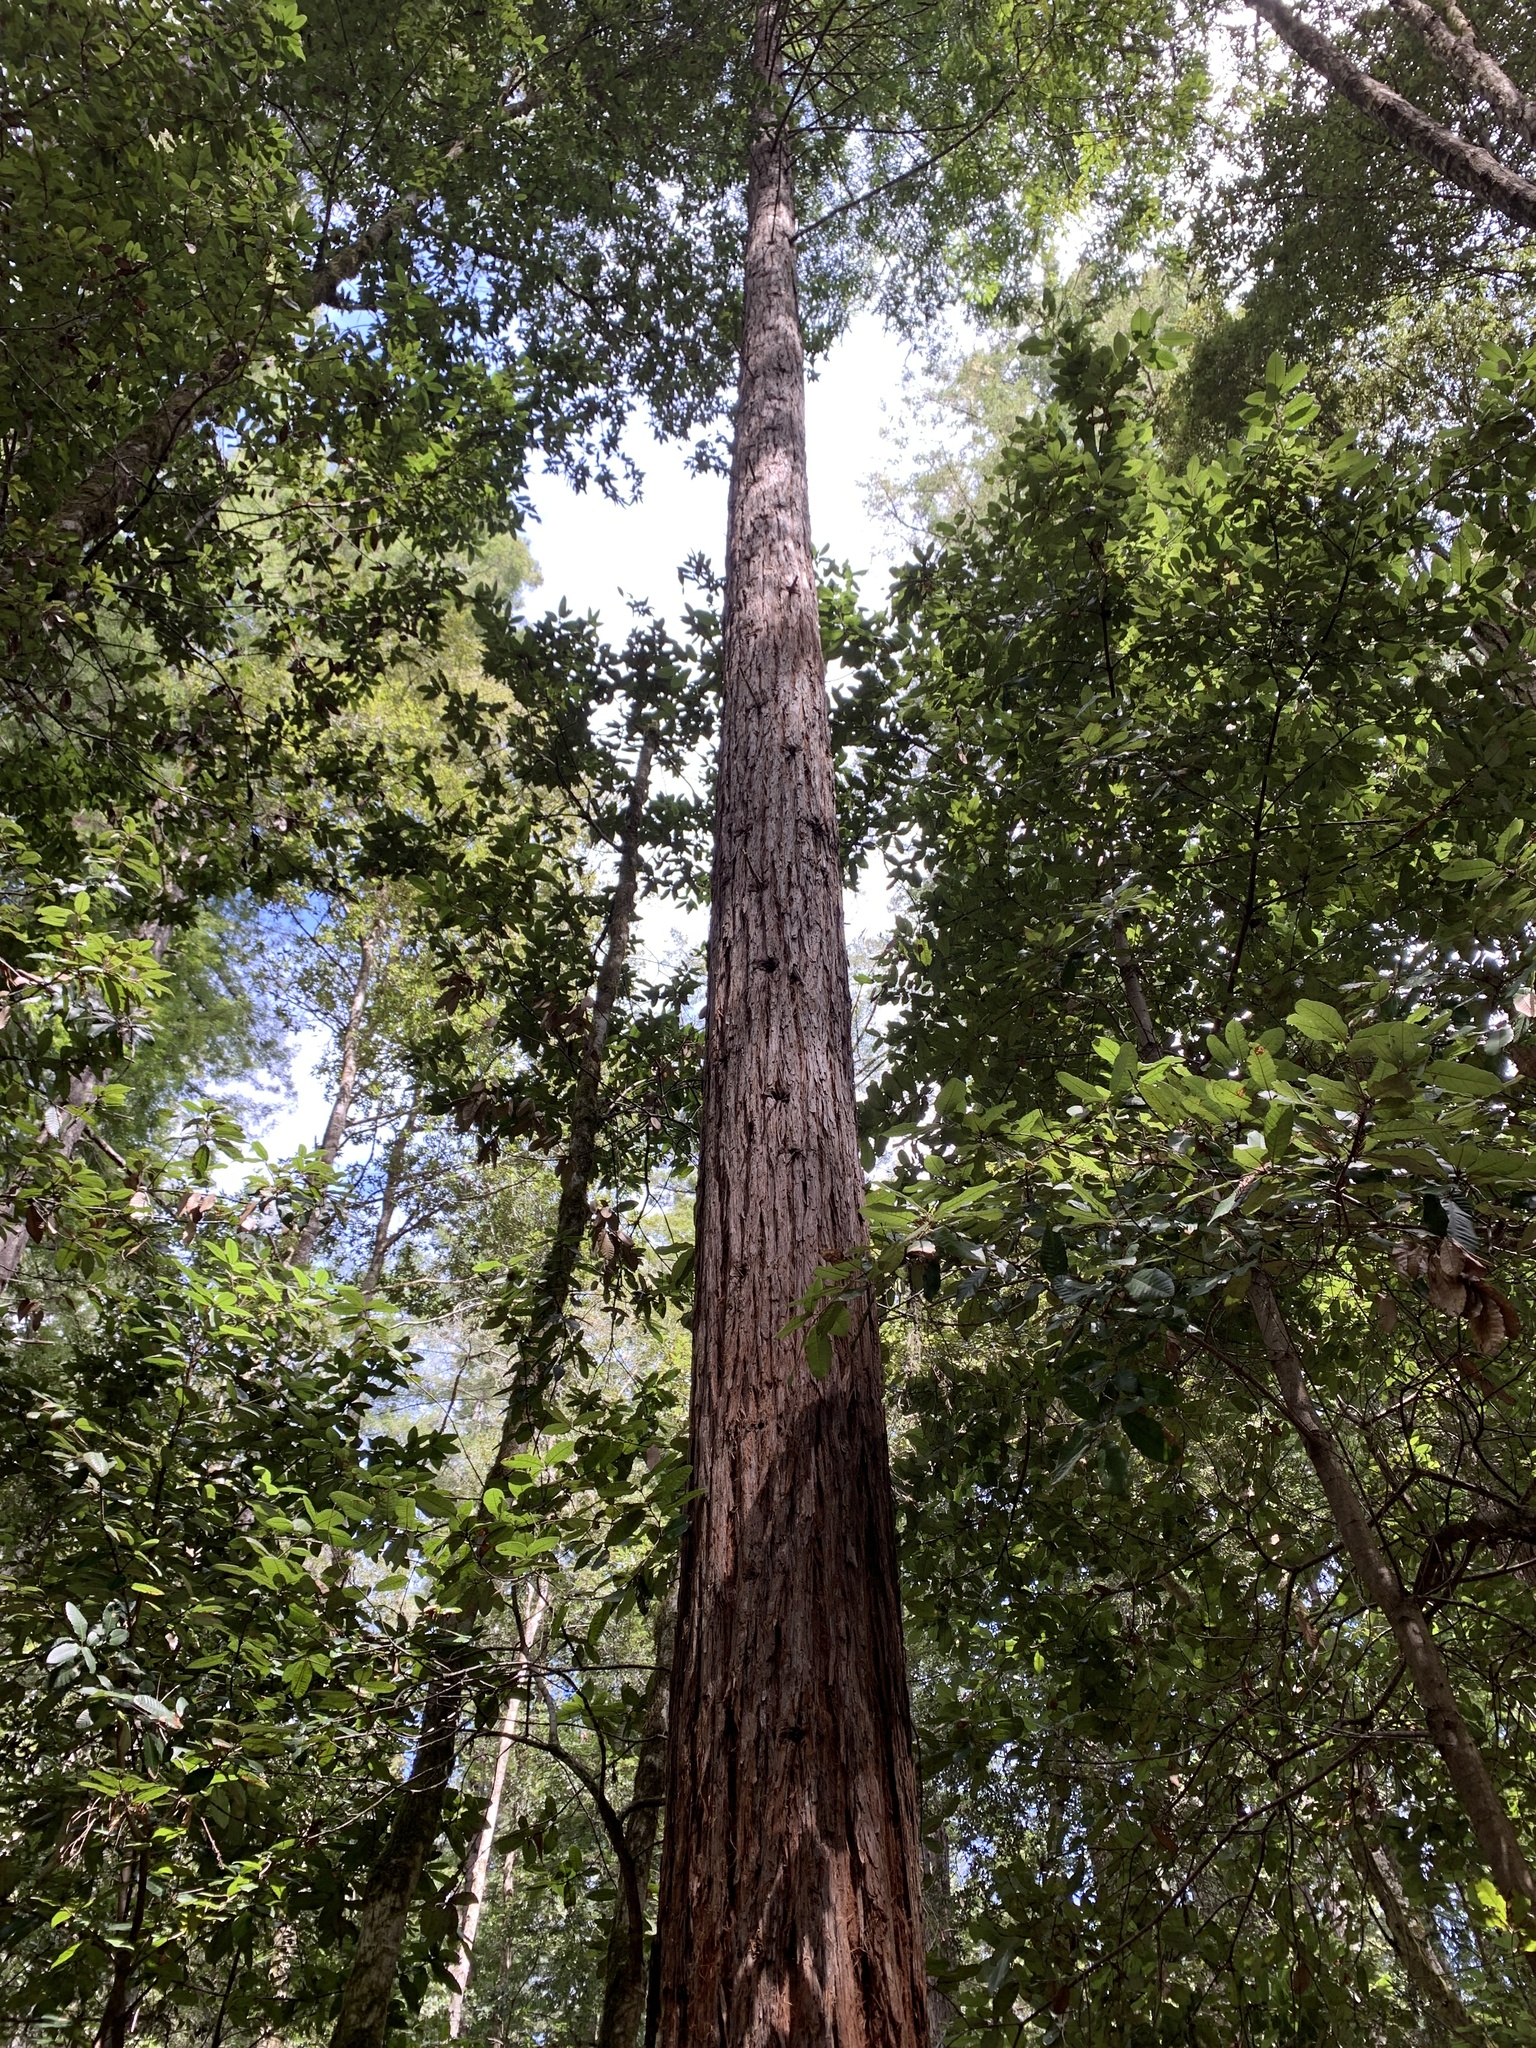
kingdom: Plantae
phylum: Tracheophyta
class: Pinopsida
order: Pinales
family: Cupressaceae
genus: Sequoia
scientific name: Sequoia sempervirens
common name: Coast redwood
